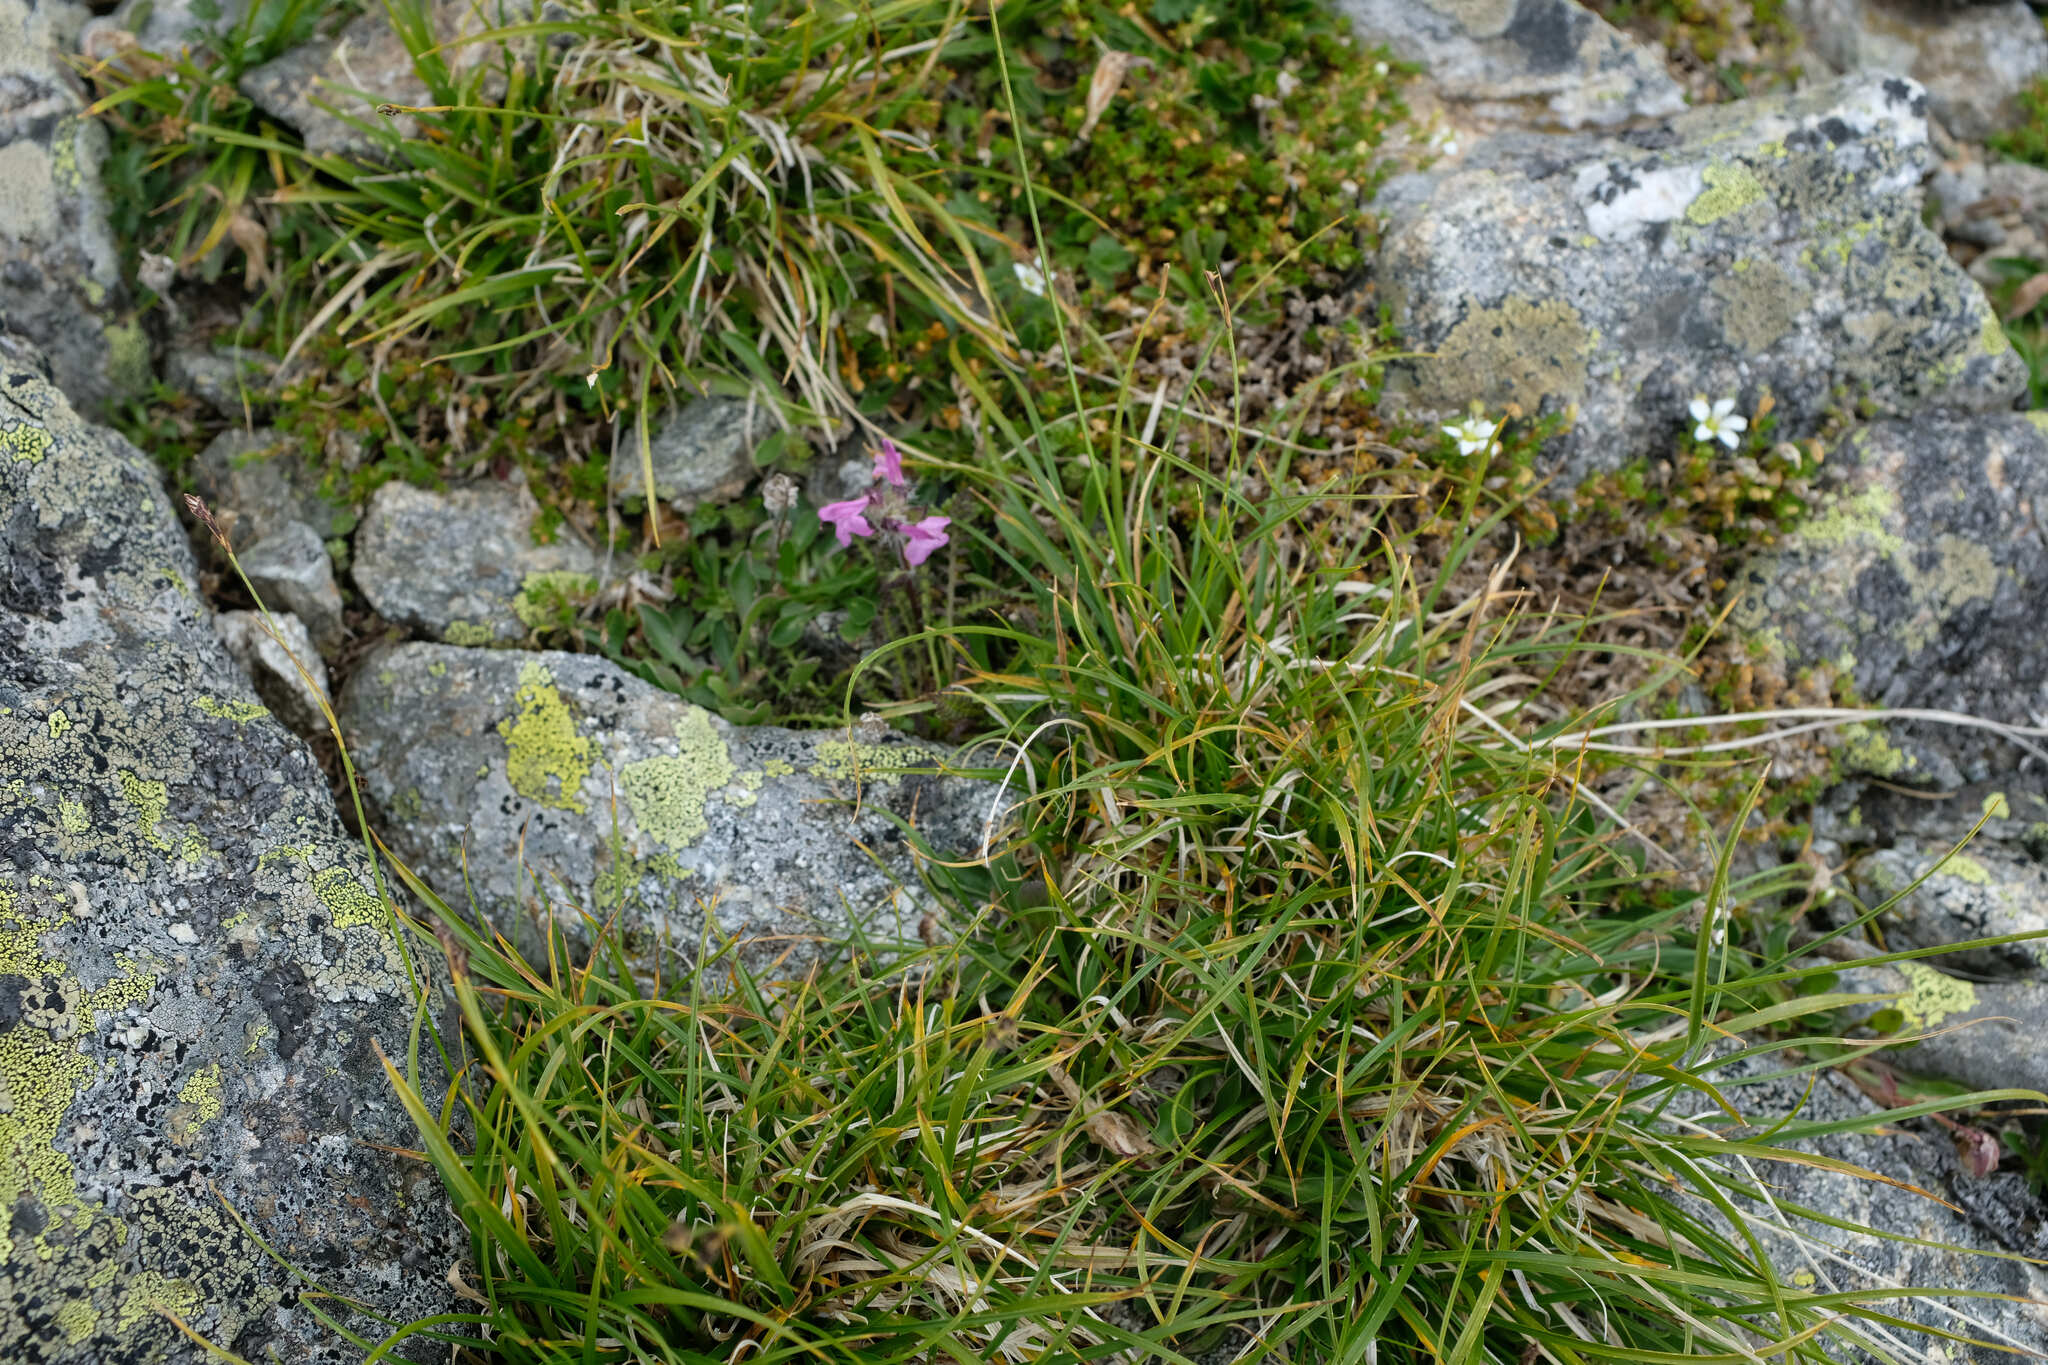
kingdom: Plantae
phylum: Tracheophyta
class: Magnoliopsida
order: Lamiales
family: Orobanchaceae
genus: Pedicularis
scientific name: Pedicularis caucasica
